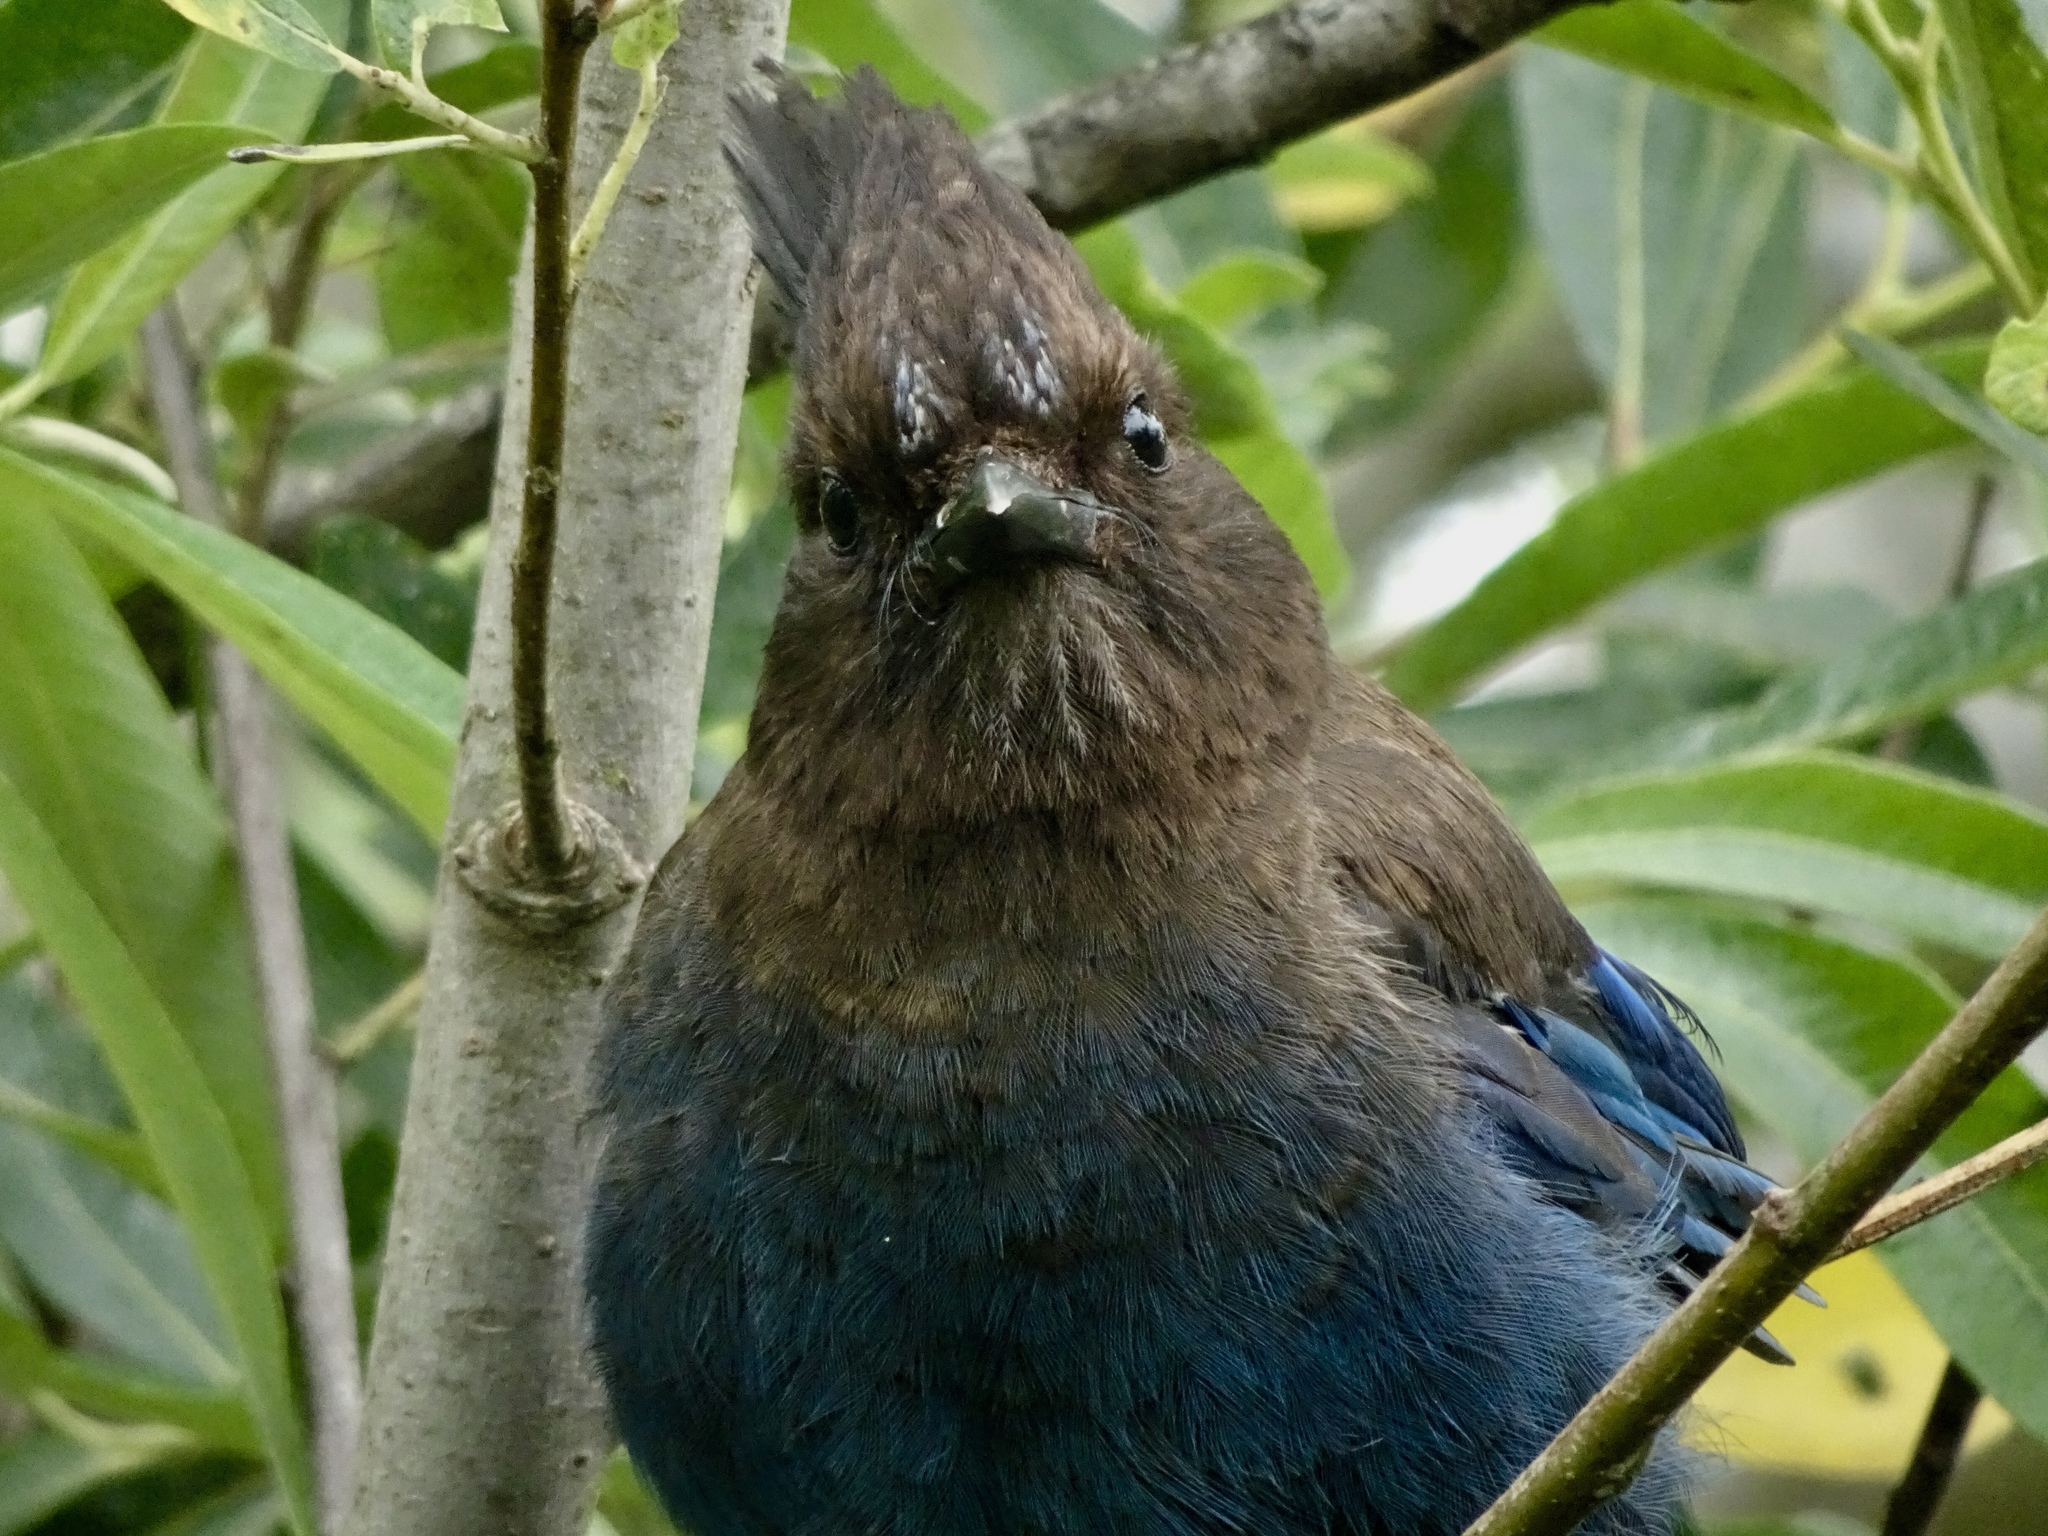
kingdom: Animalia
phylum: Chordata
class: Aves
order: Passeriformes
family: Corvidae
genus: Cyanocitta
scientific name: Cyanocitta stelleri
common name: Steller's jay
